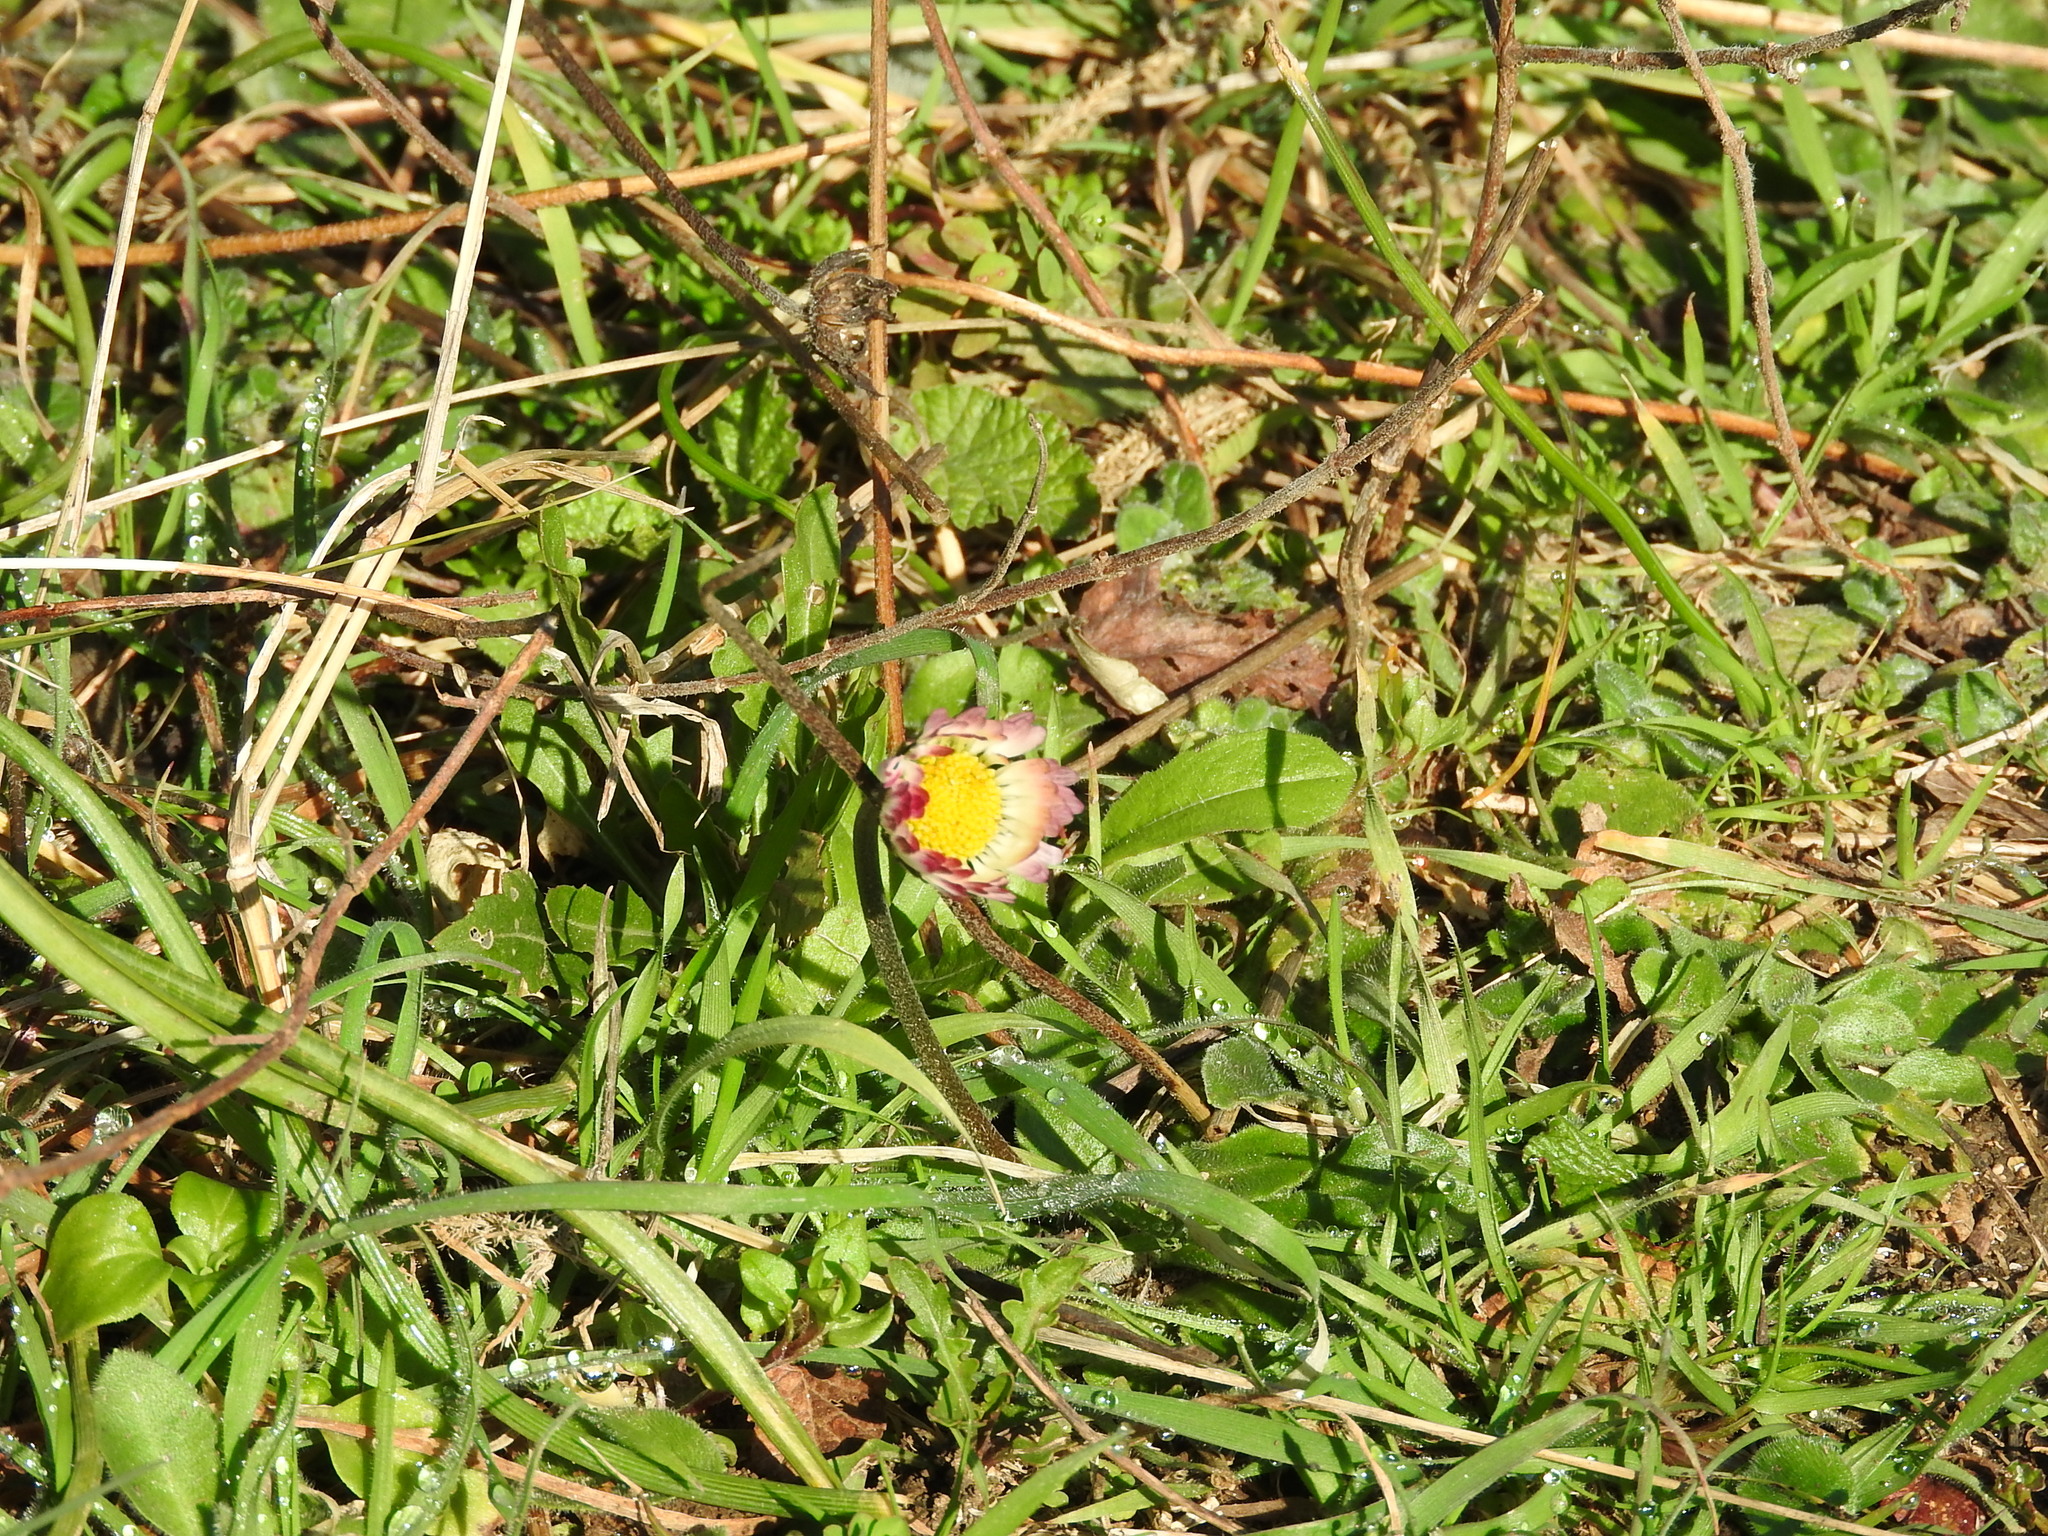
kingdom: Plantae
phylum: Tracheophyta
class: Magnoliopsida
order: Asterales
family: Asteraceae
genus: Bellis
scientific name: Bellis perennis
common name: Lawndaisy
